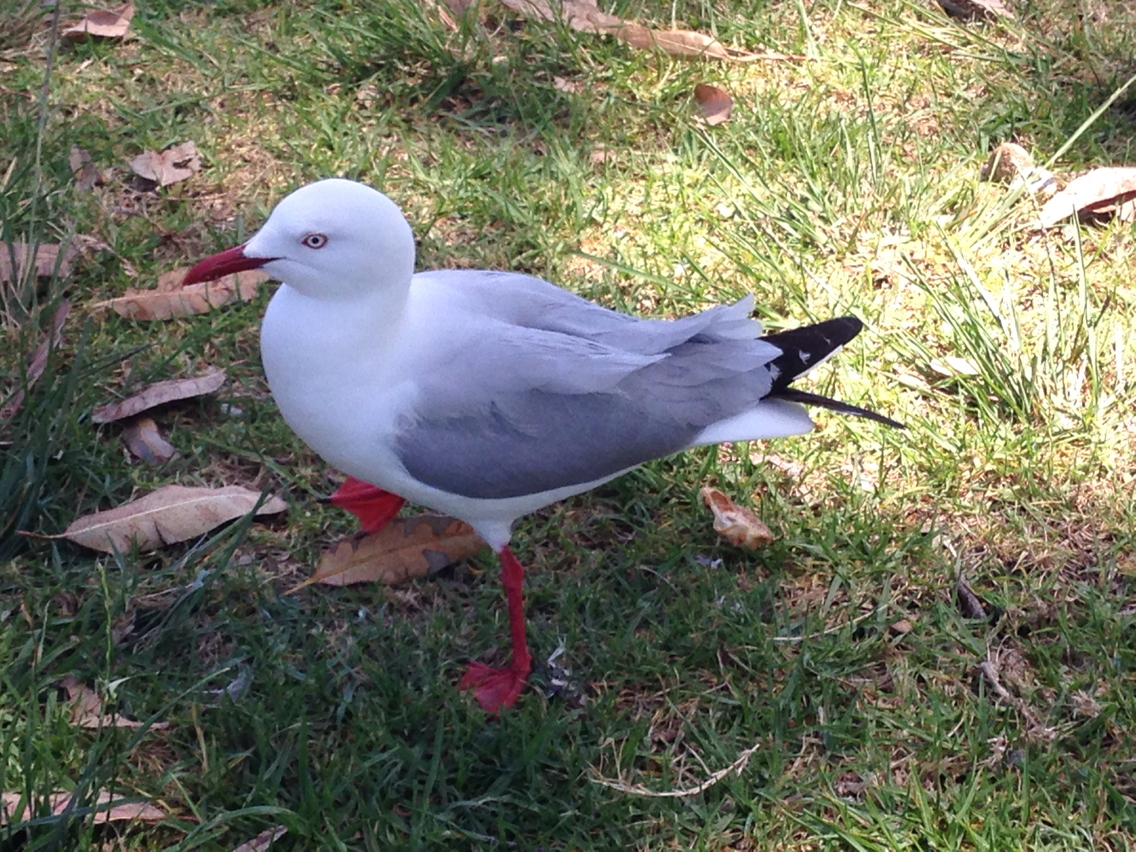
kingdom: Animalia
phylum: Chordata
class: Aves
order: Charadriiformes
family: Laridae
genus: Chroicocephalus
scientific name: Chroicocephalus novaehollandiae
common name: Silver gull
